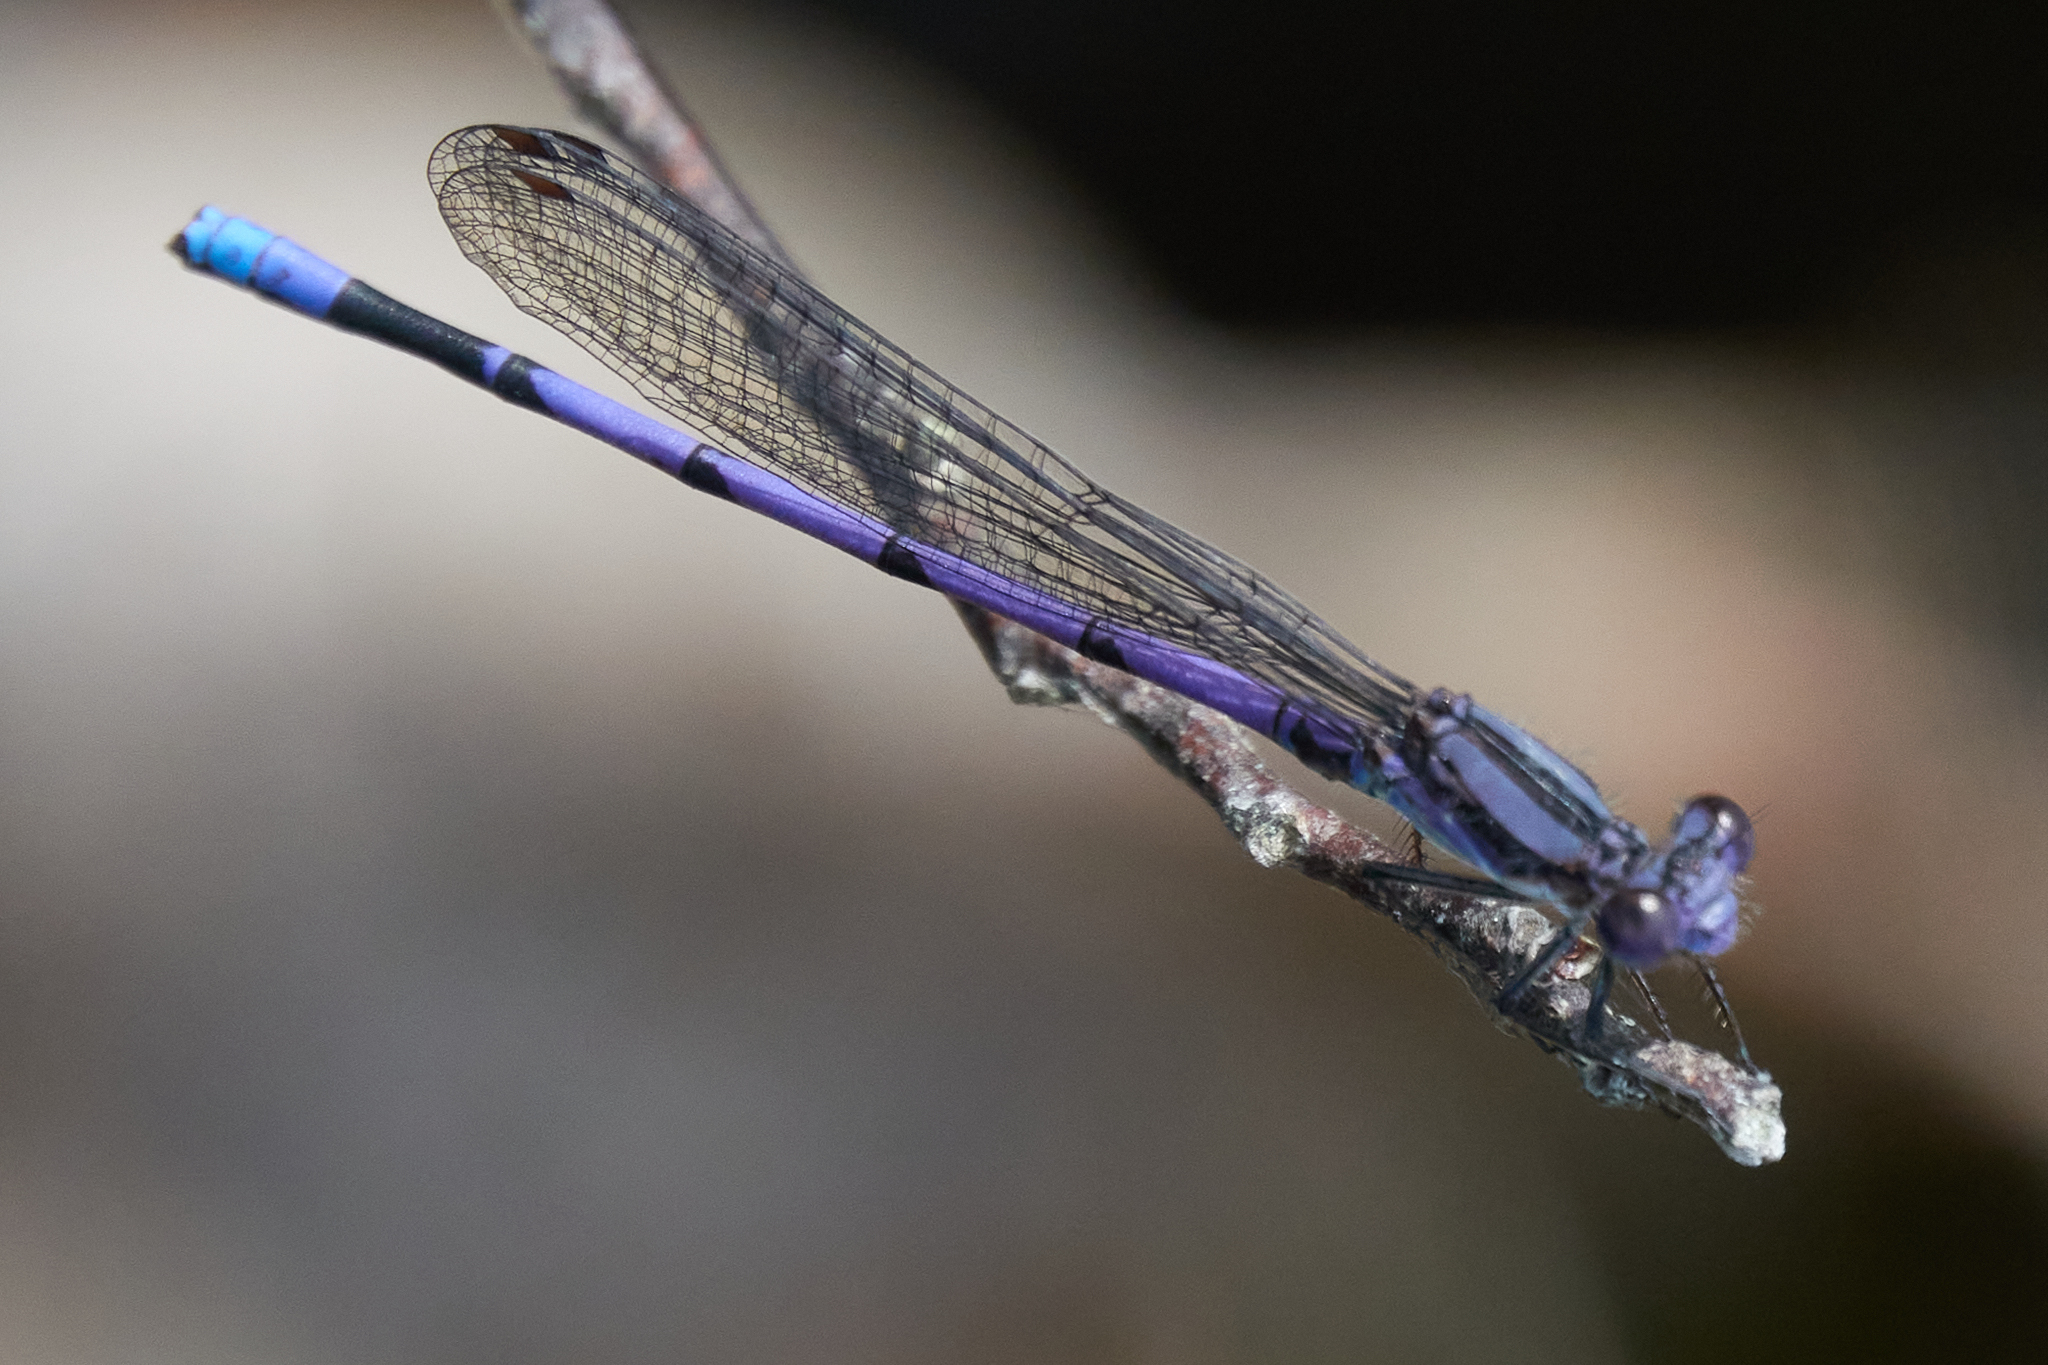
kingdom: Animalia
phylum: Arthropoda
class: Insecta
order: Odonata
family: Coenagrionidae
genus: Argia
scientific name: Argia fumipennis
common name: Variable dancer
